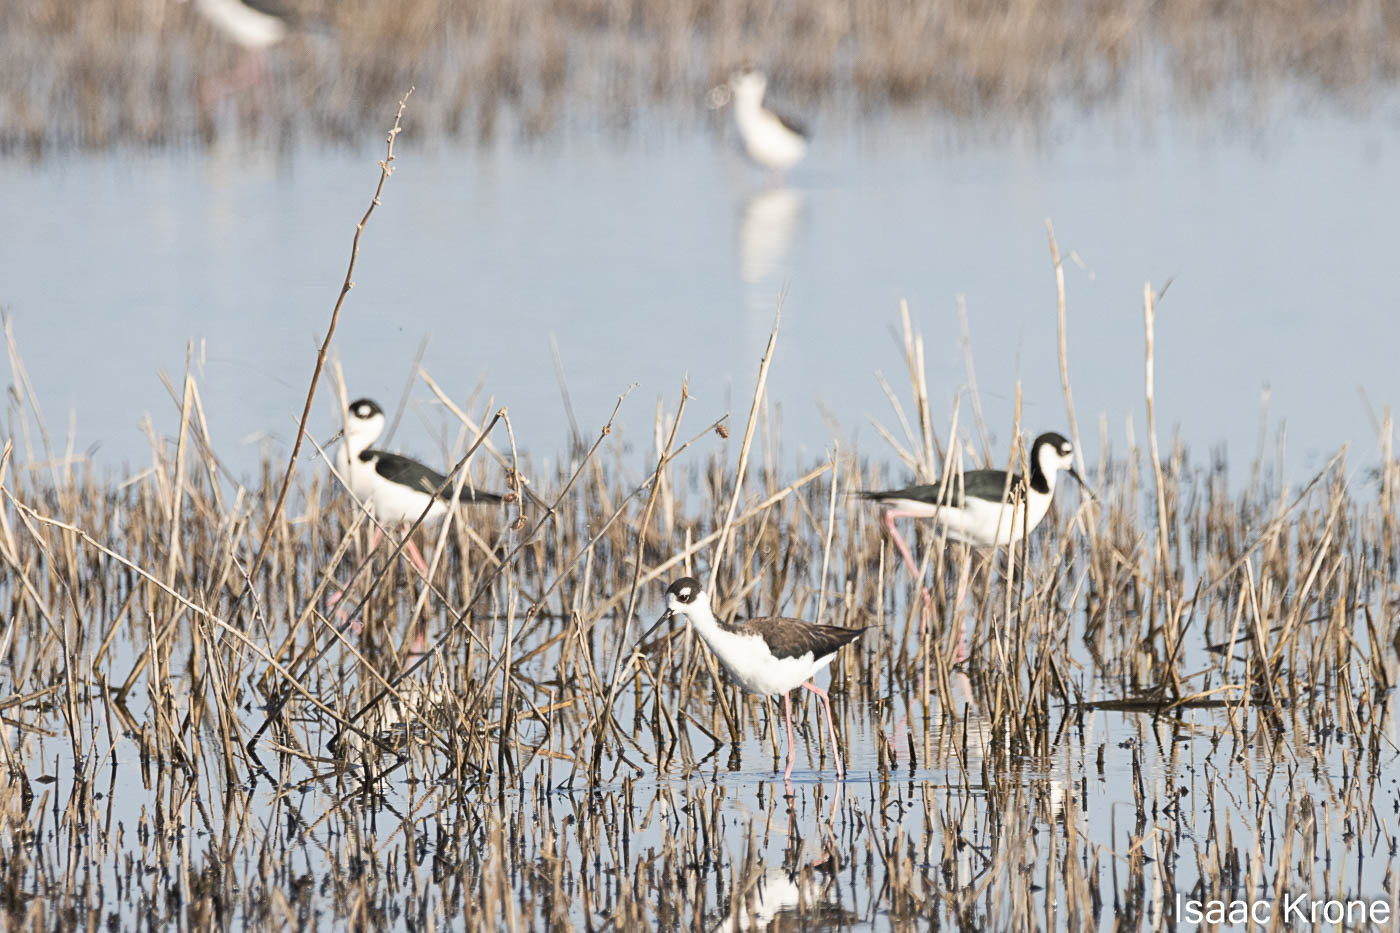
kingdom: Animalia
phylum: Chordata
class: Aves
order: Charadriiformes
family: Recurvirostridae
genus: Himantopus
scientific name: Himantopus mexicanus
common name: Black-necked stilt
